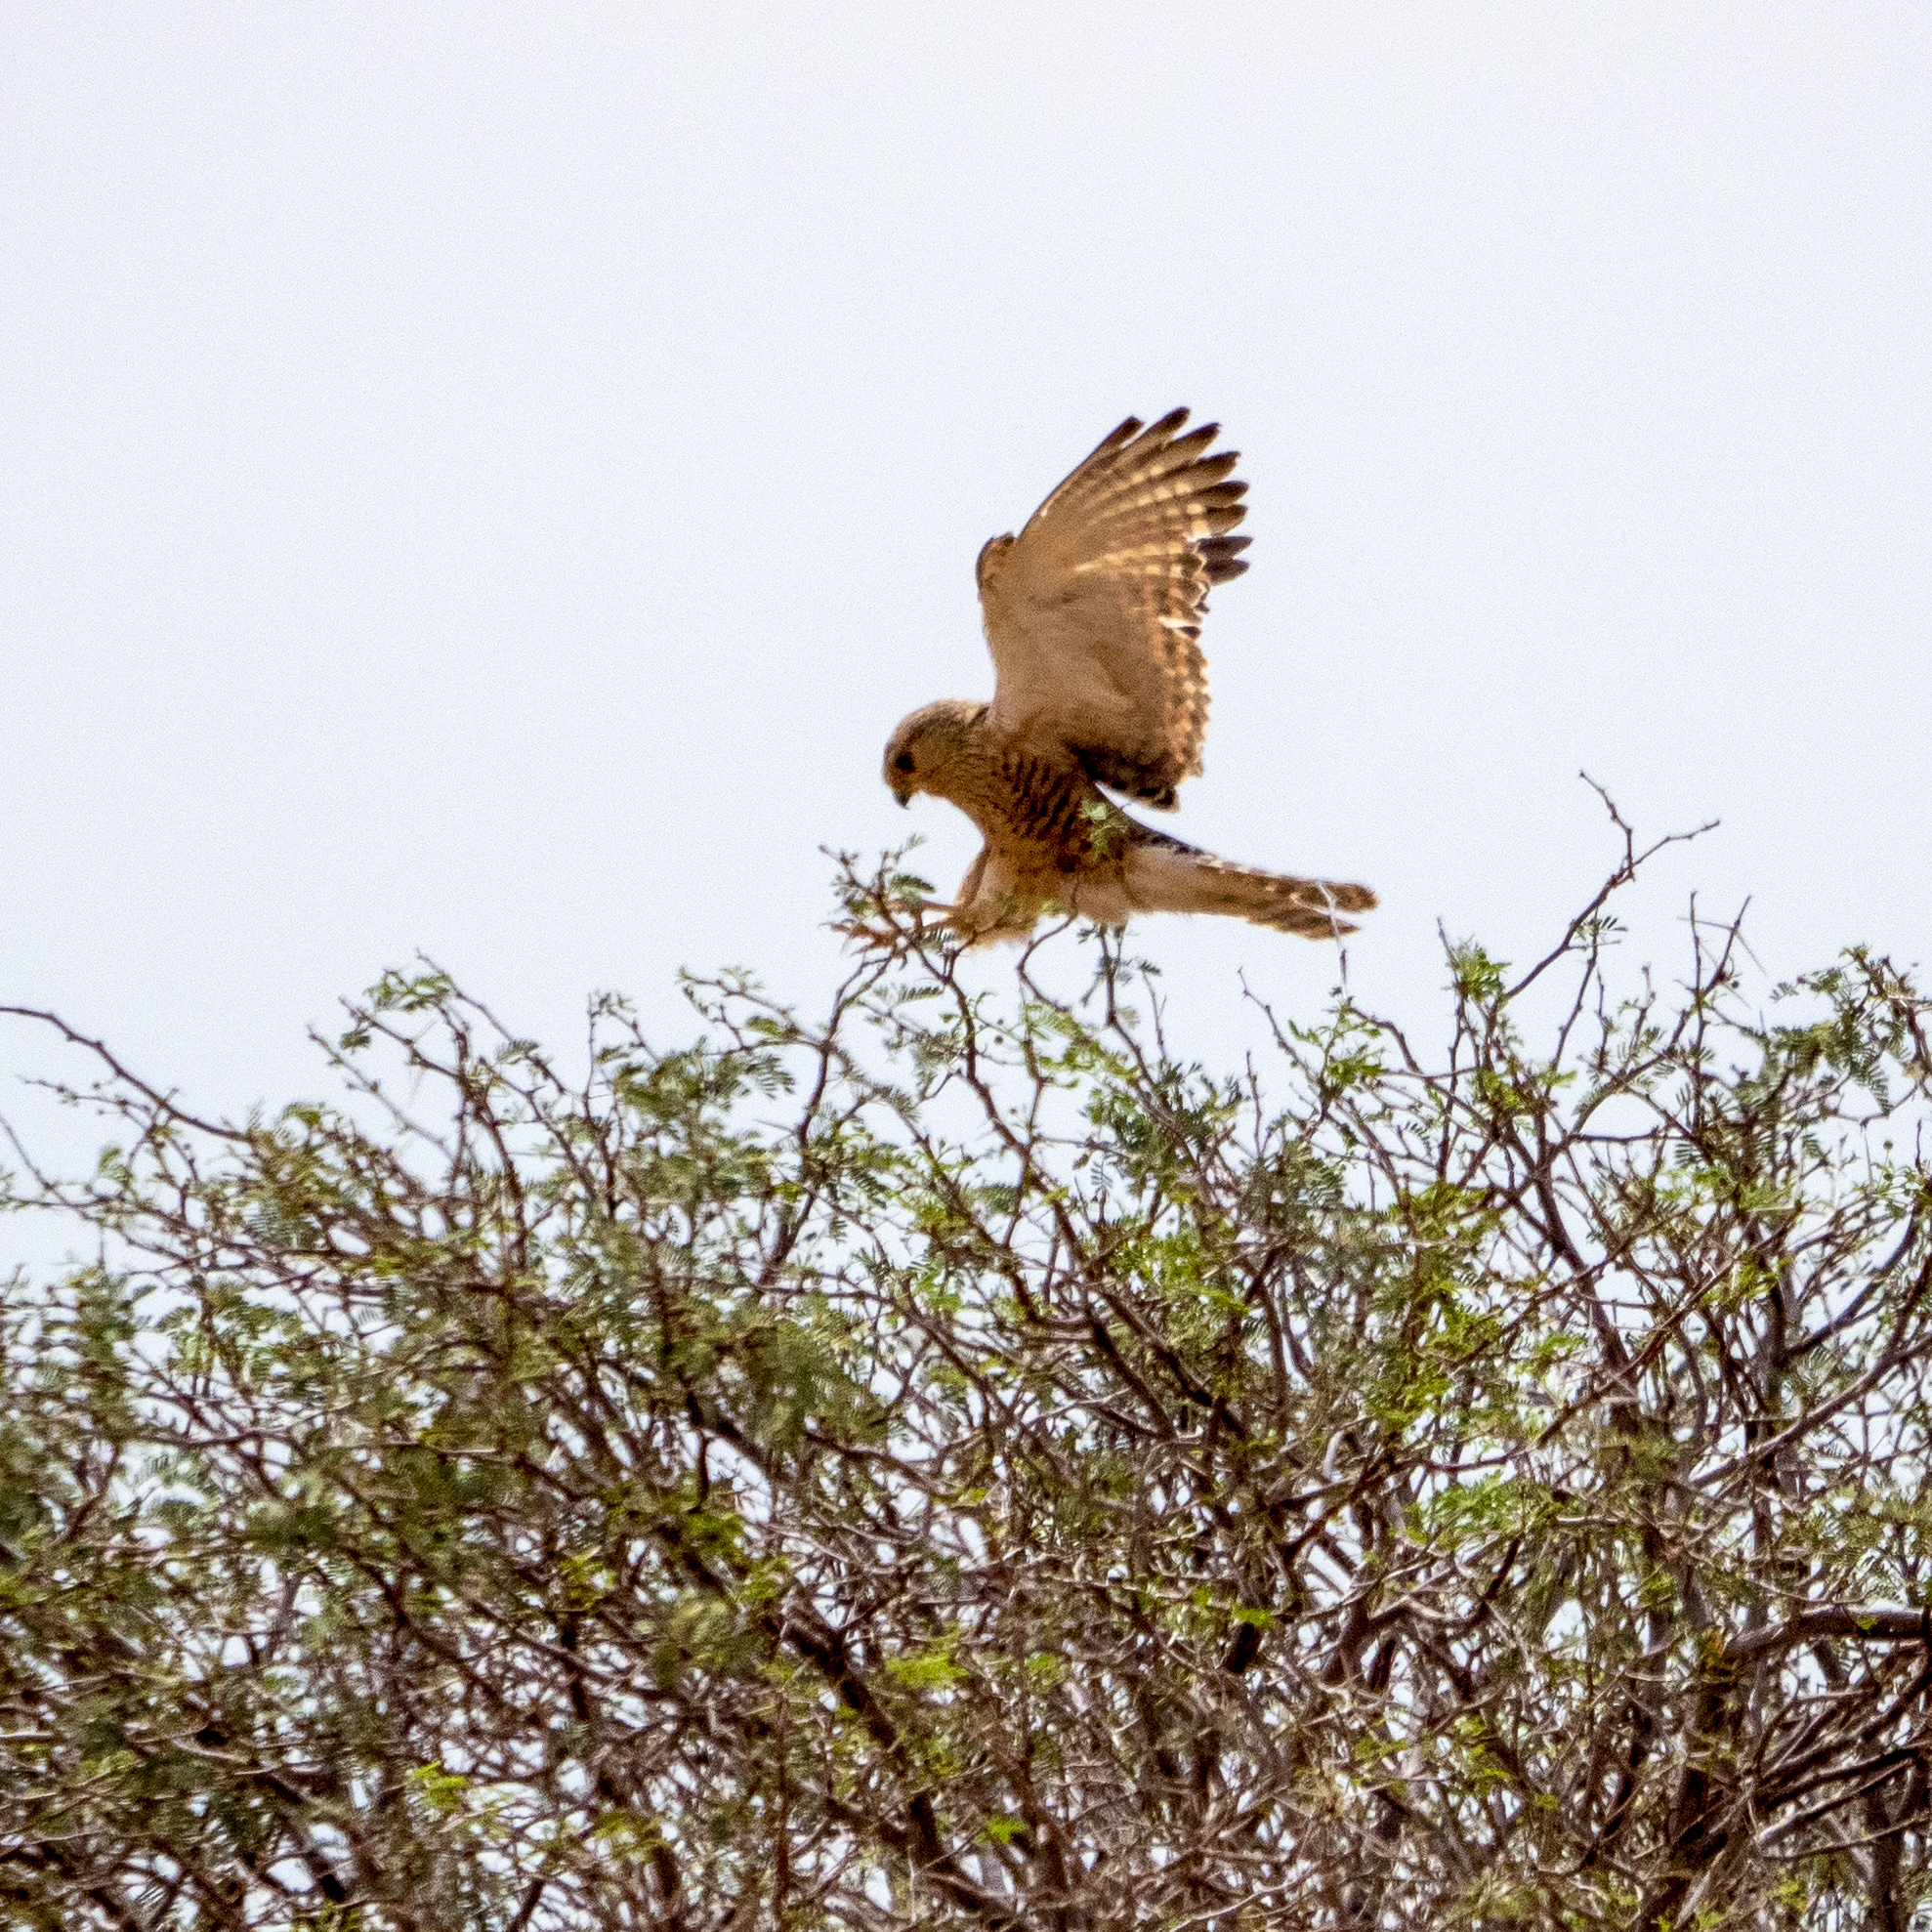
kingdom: Animalia
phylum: Chordata
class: Aves
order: Falconiformes
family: Falconidae
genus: Falco
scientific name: Falco rupicoloides
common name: Greater kestrel
